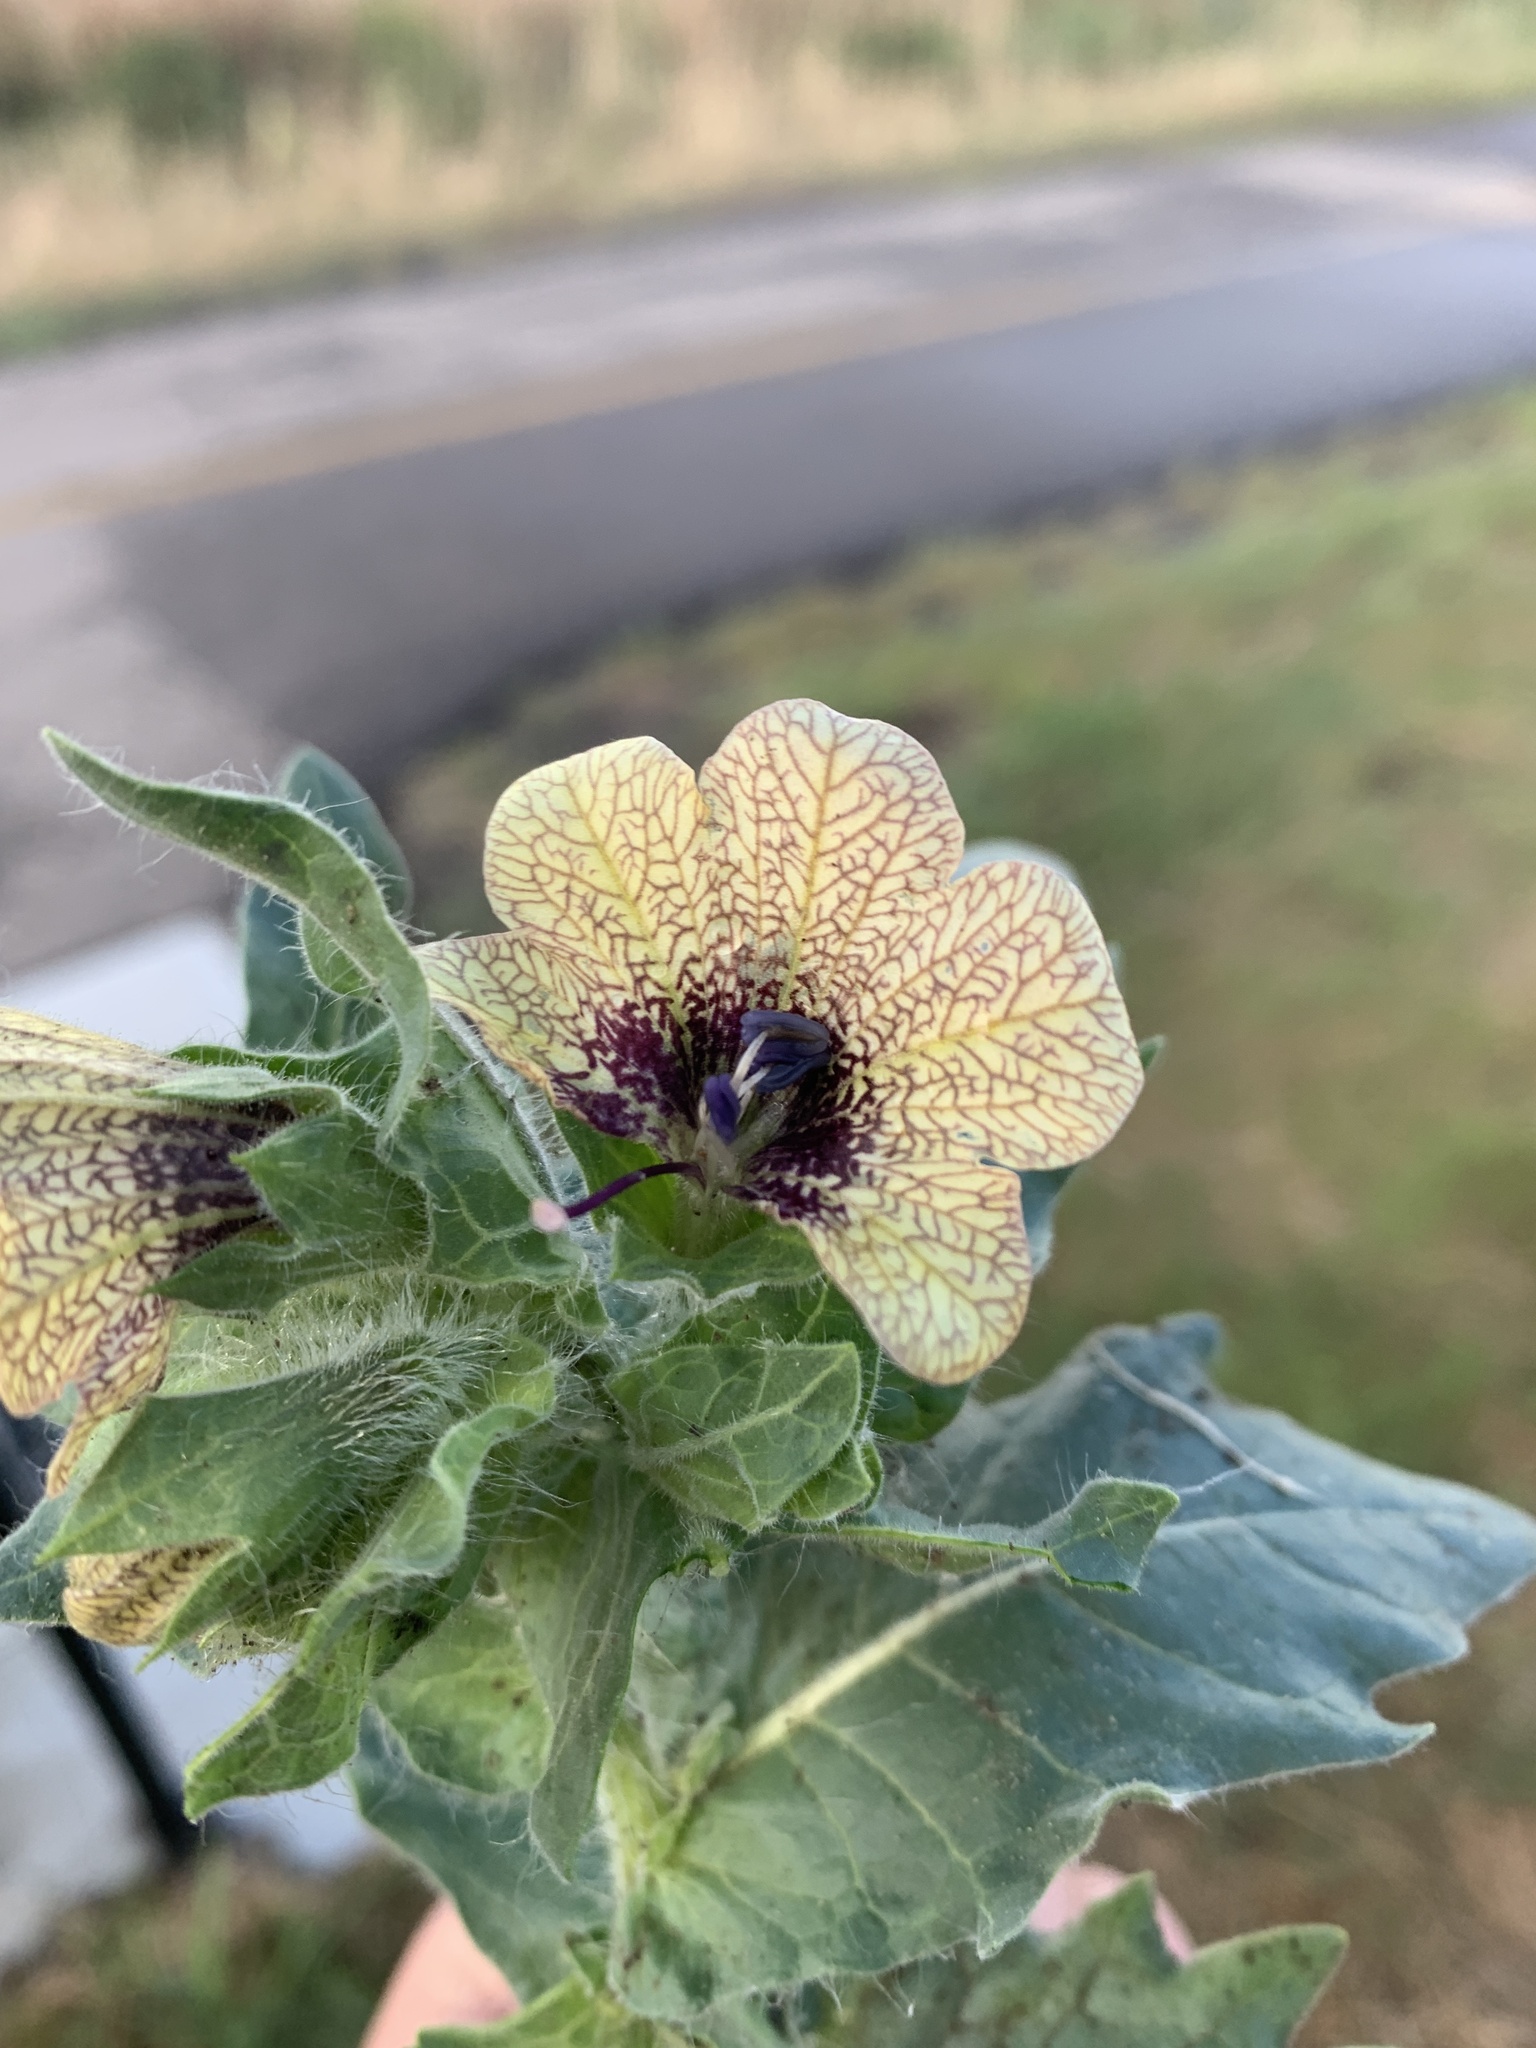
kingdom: Plantae
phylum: Tracheophyta
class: Magnoliopsida
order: Solanales
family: Solanaceae
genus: Hyoscyamus
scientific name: Hyoscyamus niger
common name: Henbane
